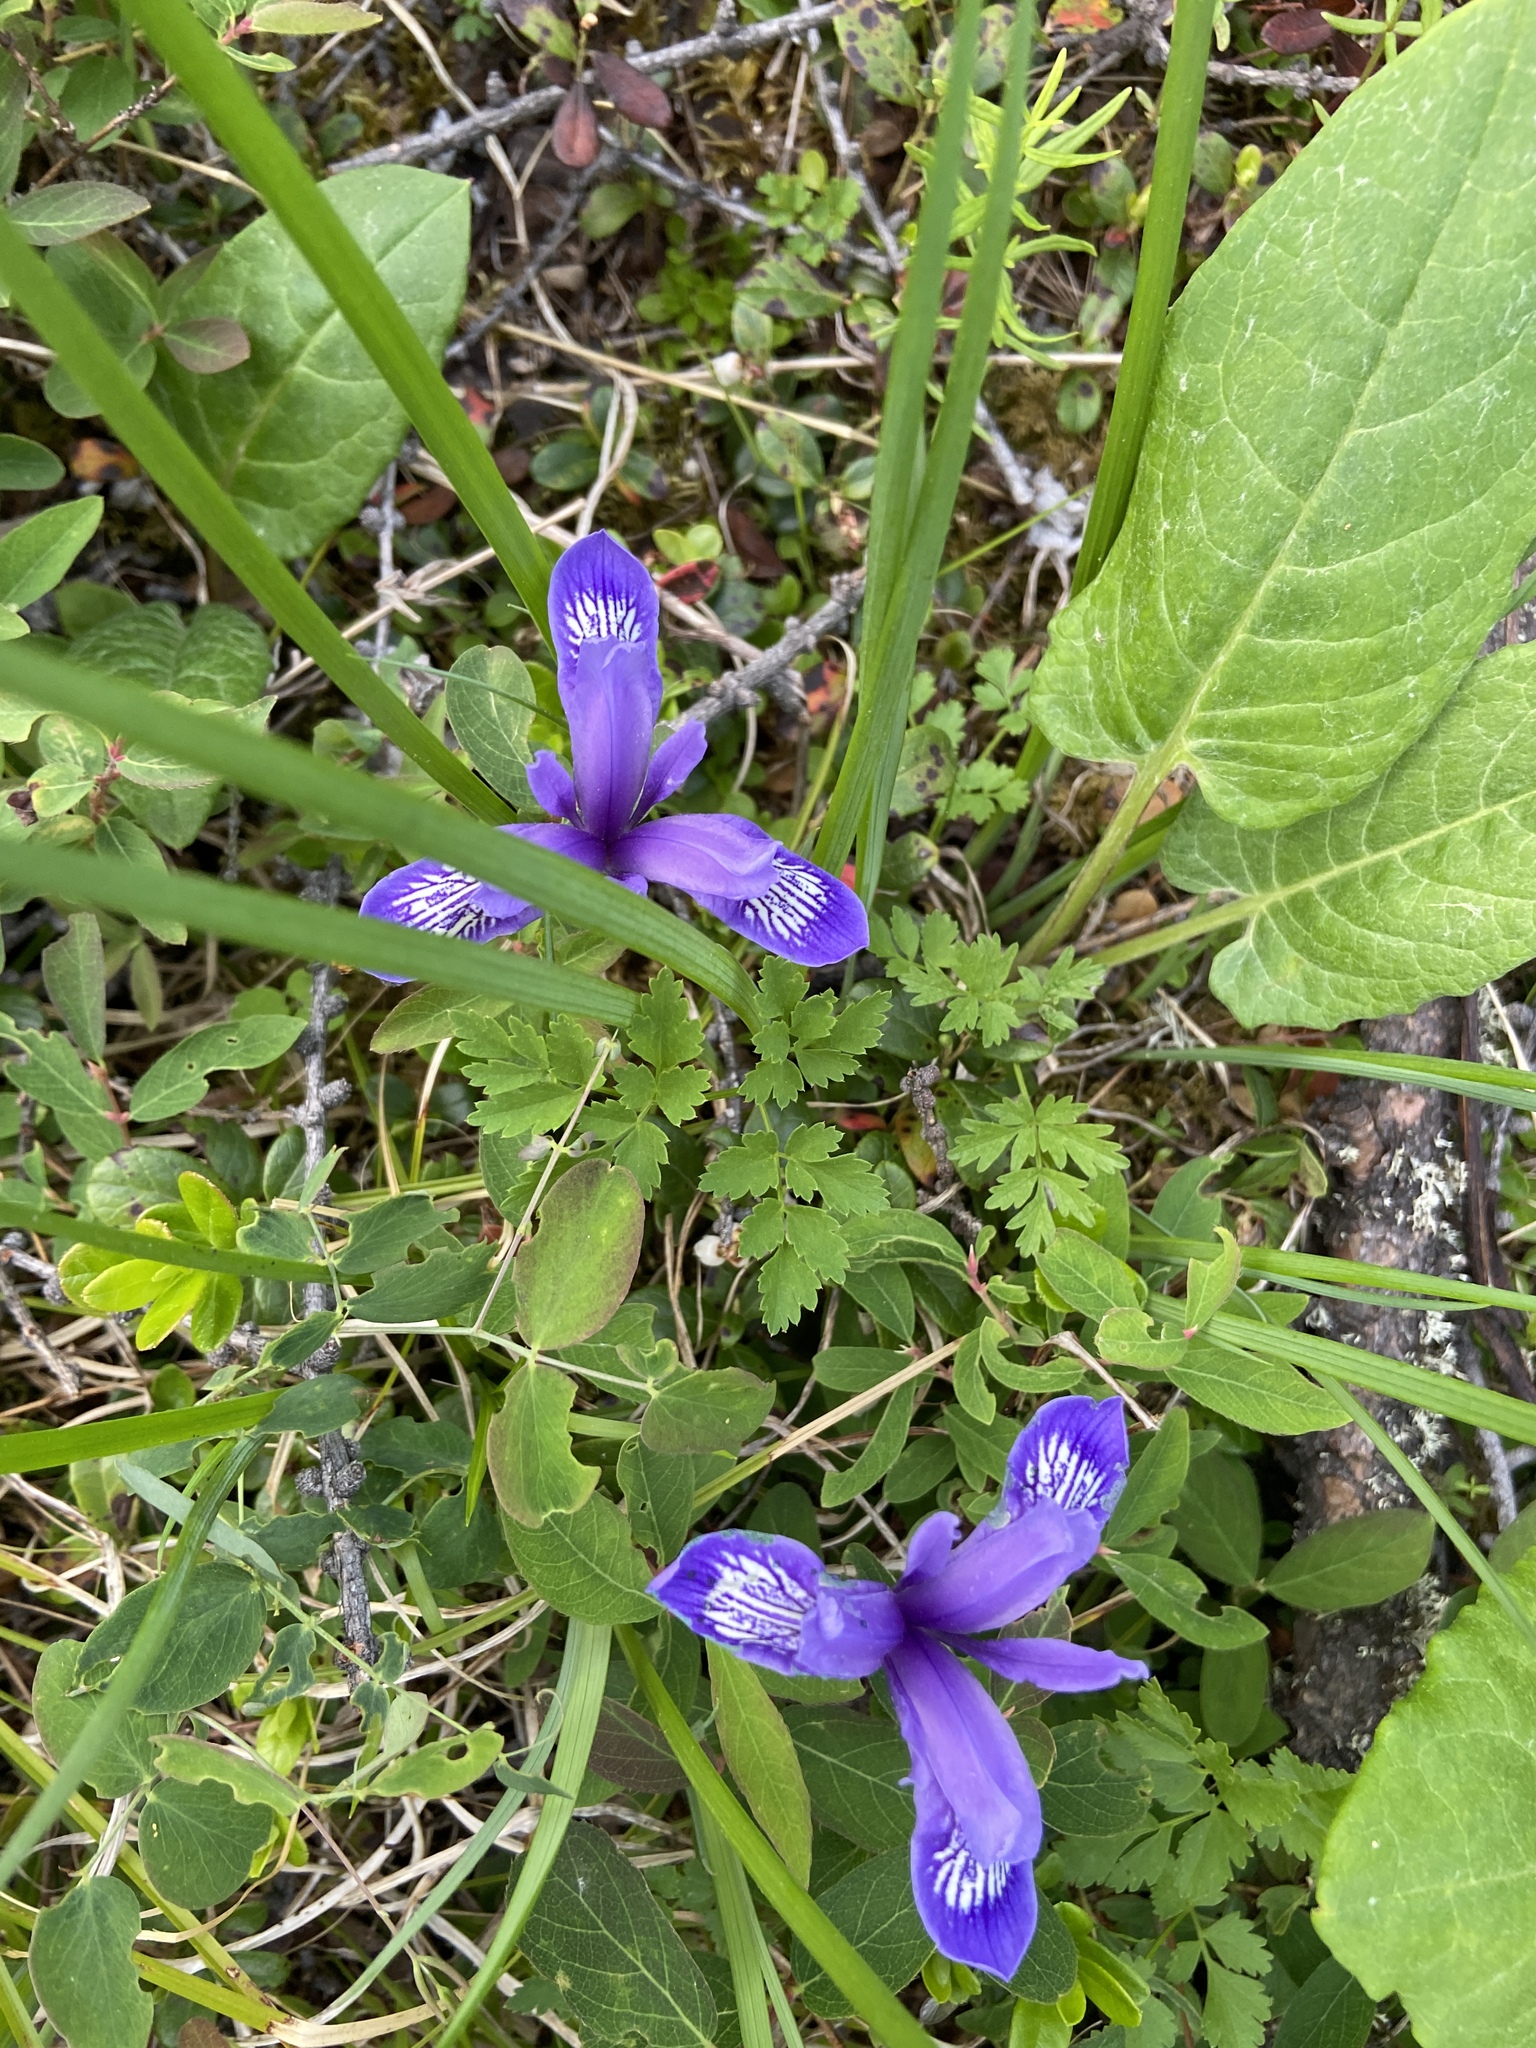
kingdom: Plantae
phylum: Tracheophyta
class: Liliopsida
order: Asparagales
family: Iridaceae
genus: Iris
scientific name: Iris ruthenica
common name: Purple-bract iris
